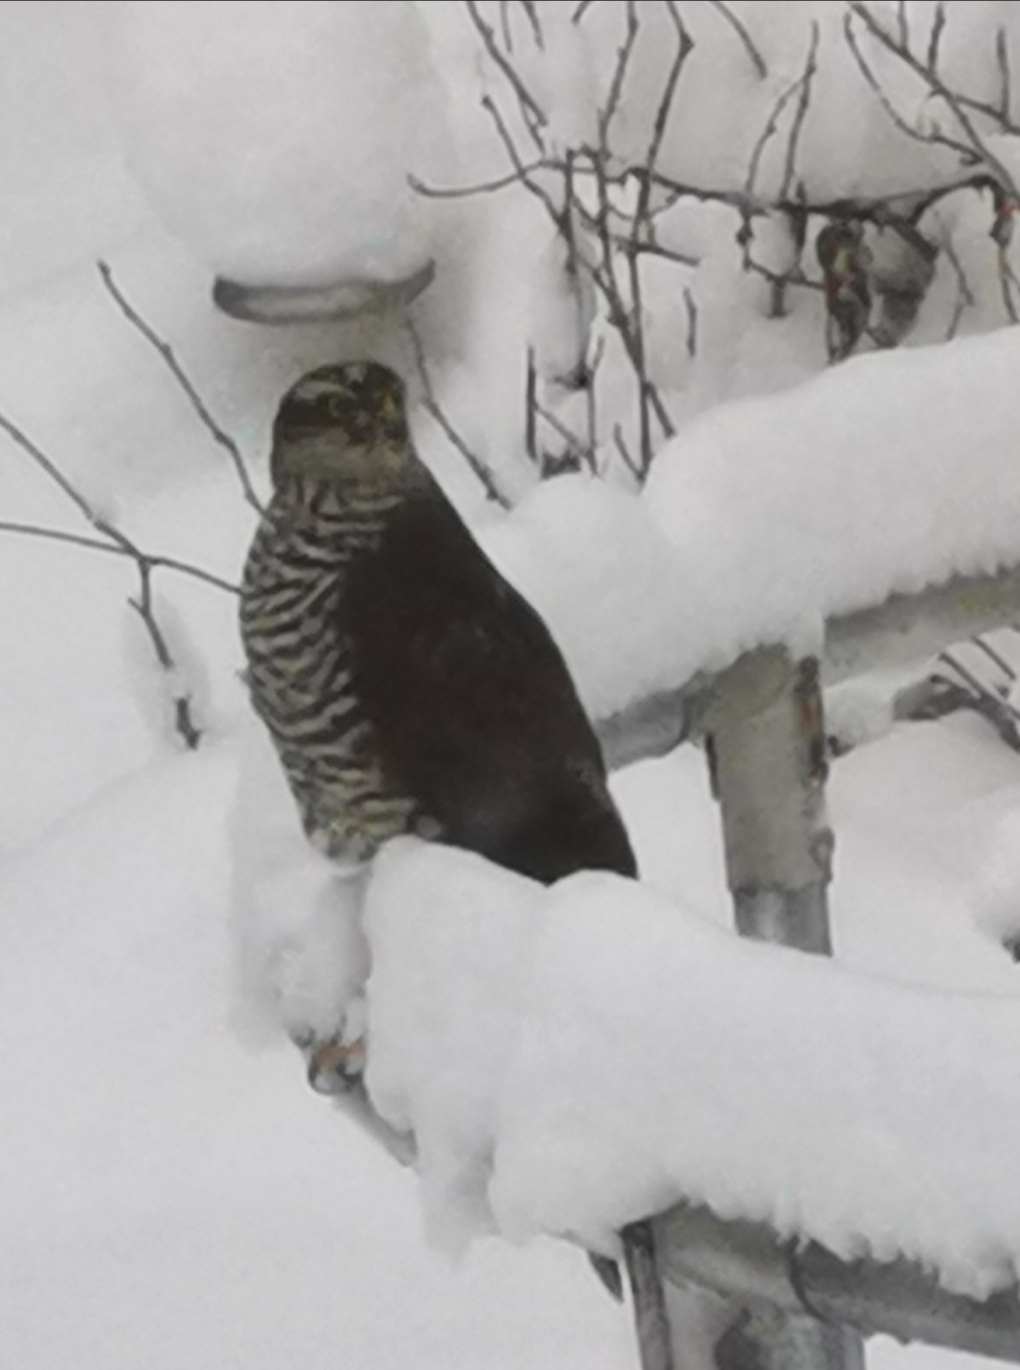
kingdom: Animalia
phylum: Chordata
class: Aves
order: Accipitriformes
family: Accipitridae
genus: Accipiter
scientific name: Accipiter nisus
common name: Eurasian sparrowhawk
